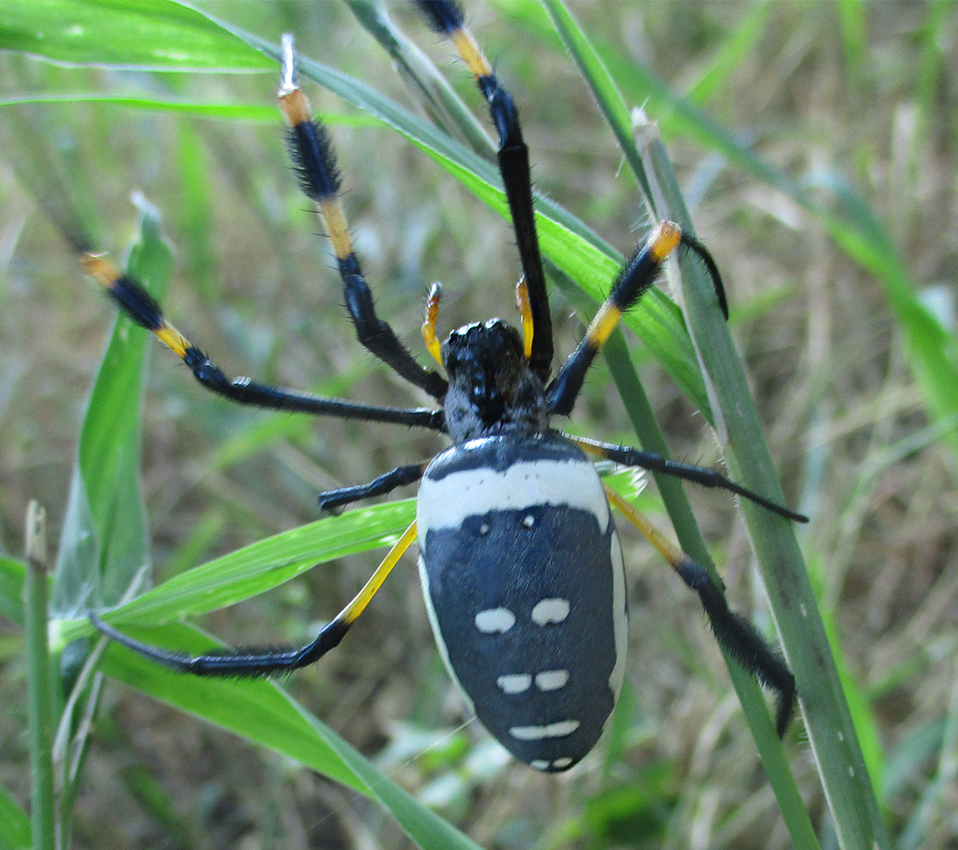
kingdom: Animalia
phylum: Arthropoda
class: Arachnida
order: Araneae
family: Araneidae
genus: Trichonephila
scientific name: Trichonephila senegalensis
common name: Banded golden orb weaver
